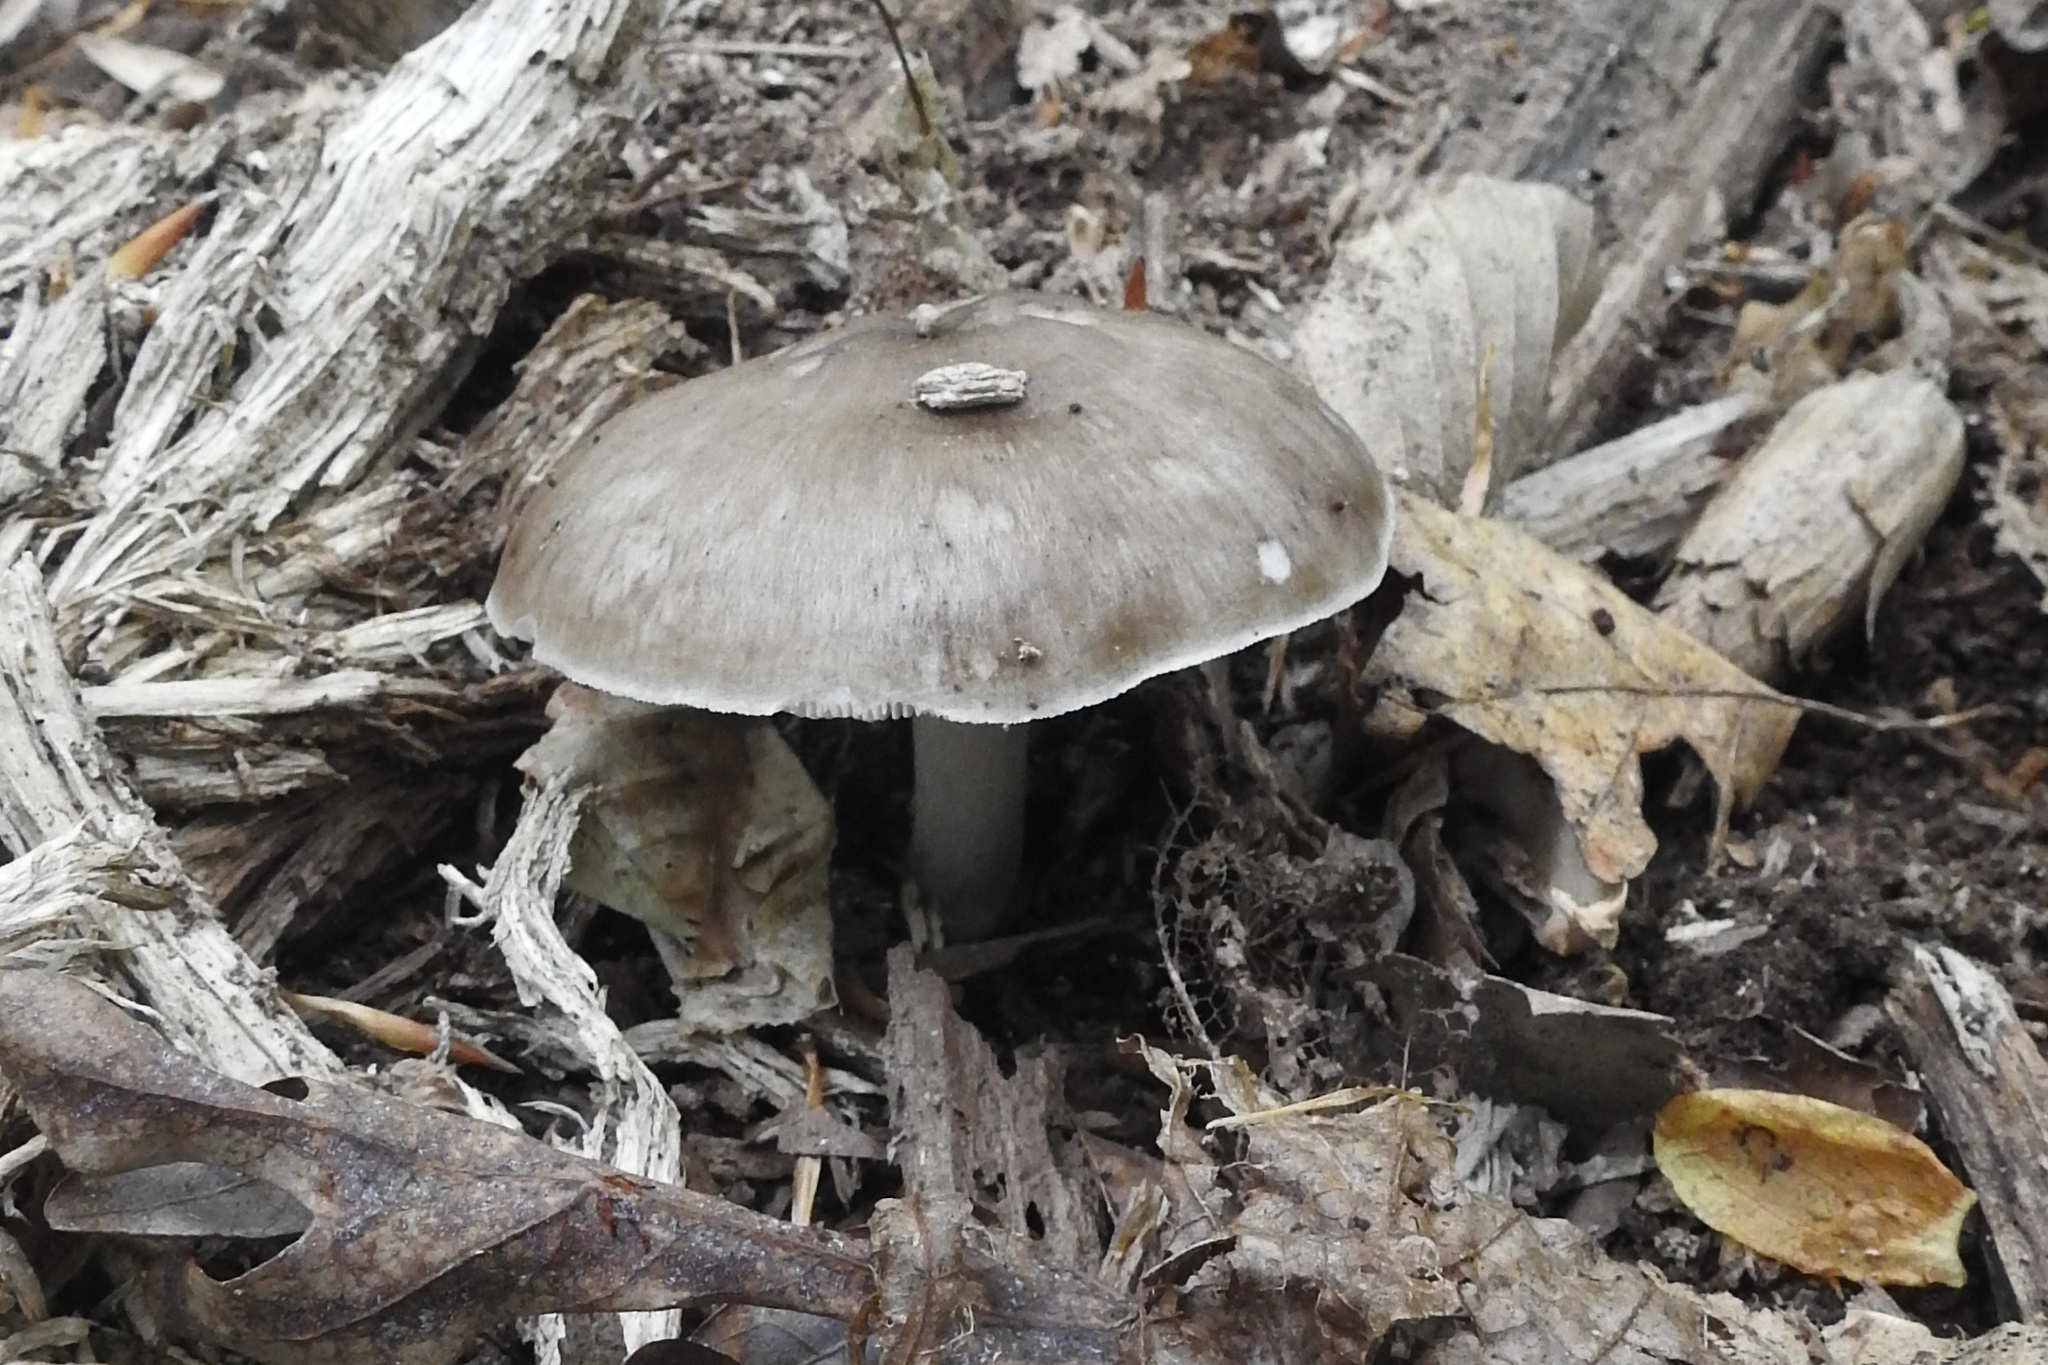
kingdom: Fungi
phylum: Basidiomycota
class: Agaricomycetes
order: Agaricales
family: Pluteaceae
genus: Pluteus
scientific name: Pluteus cervinus
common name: Deer shield
